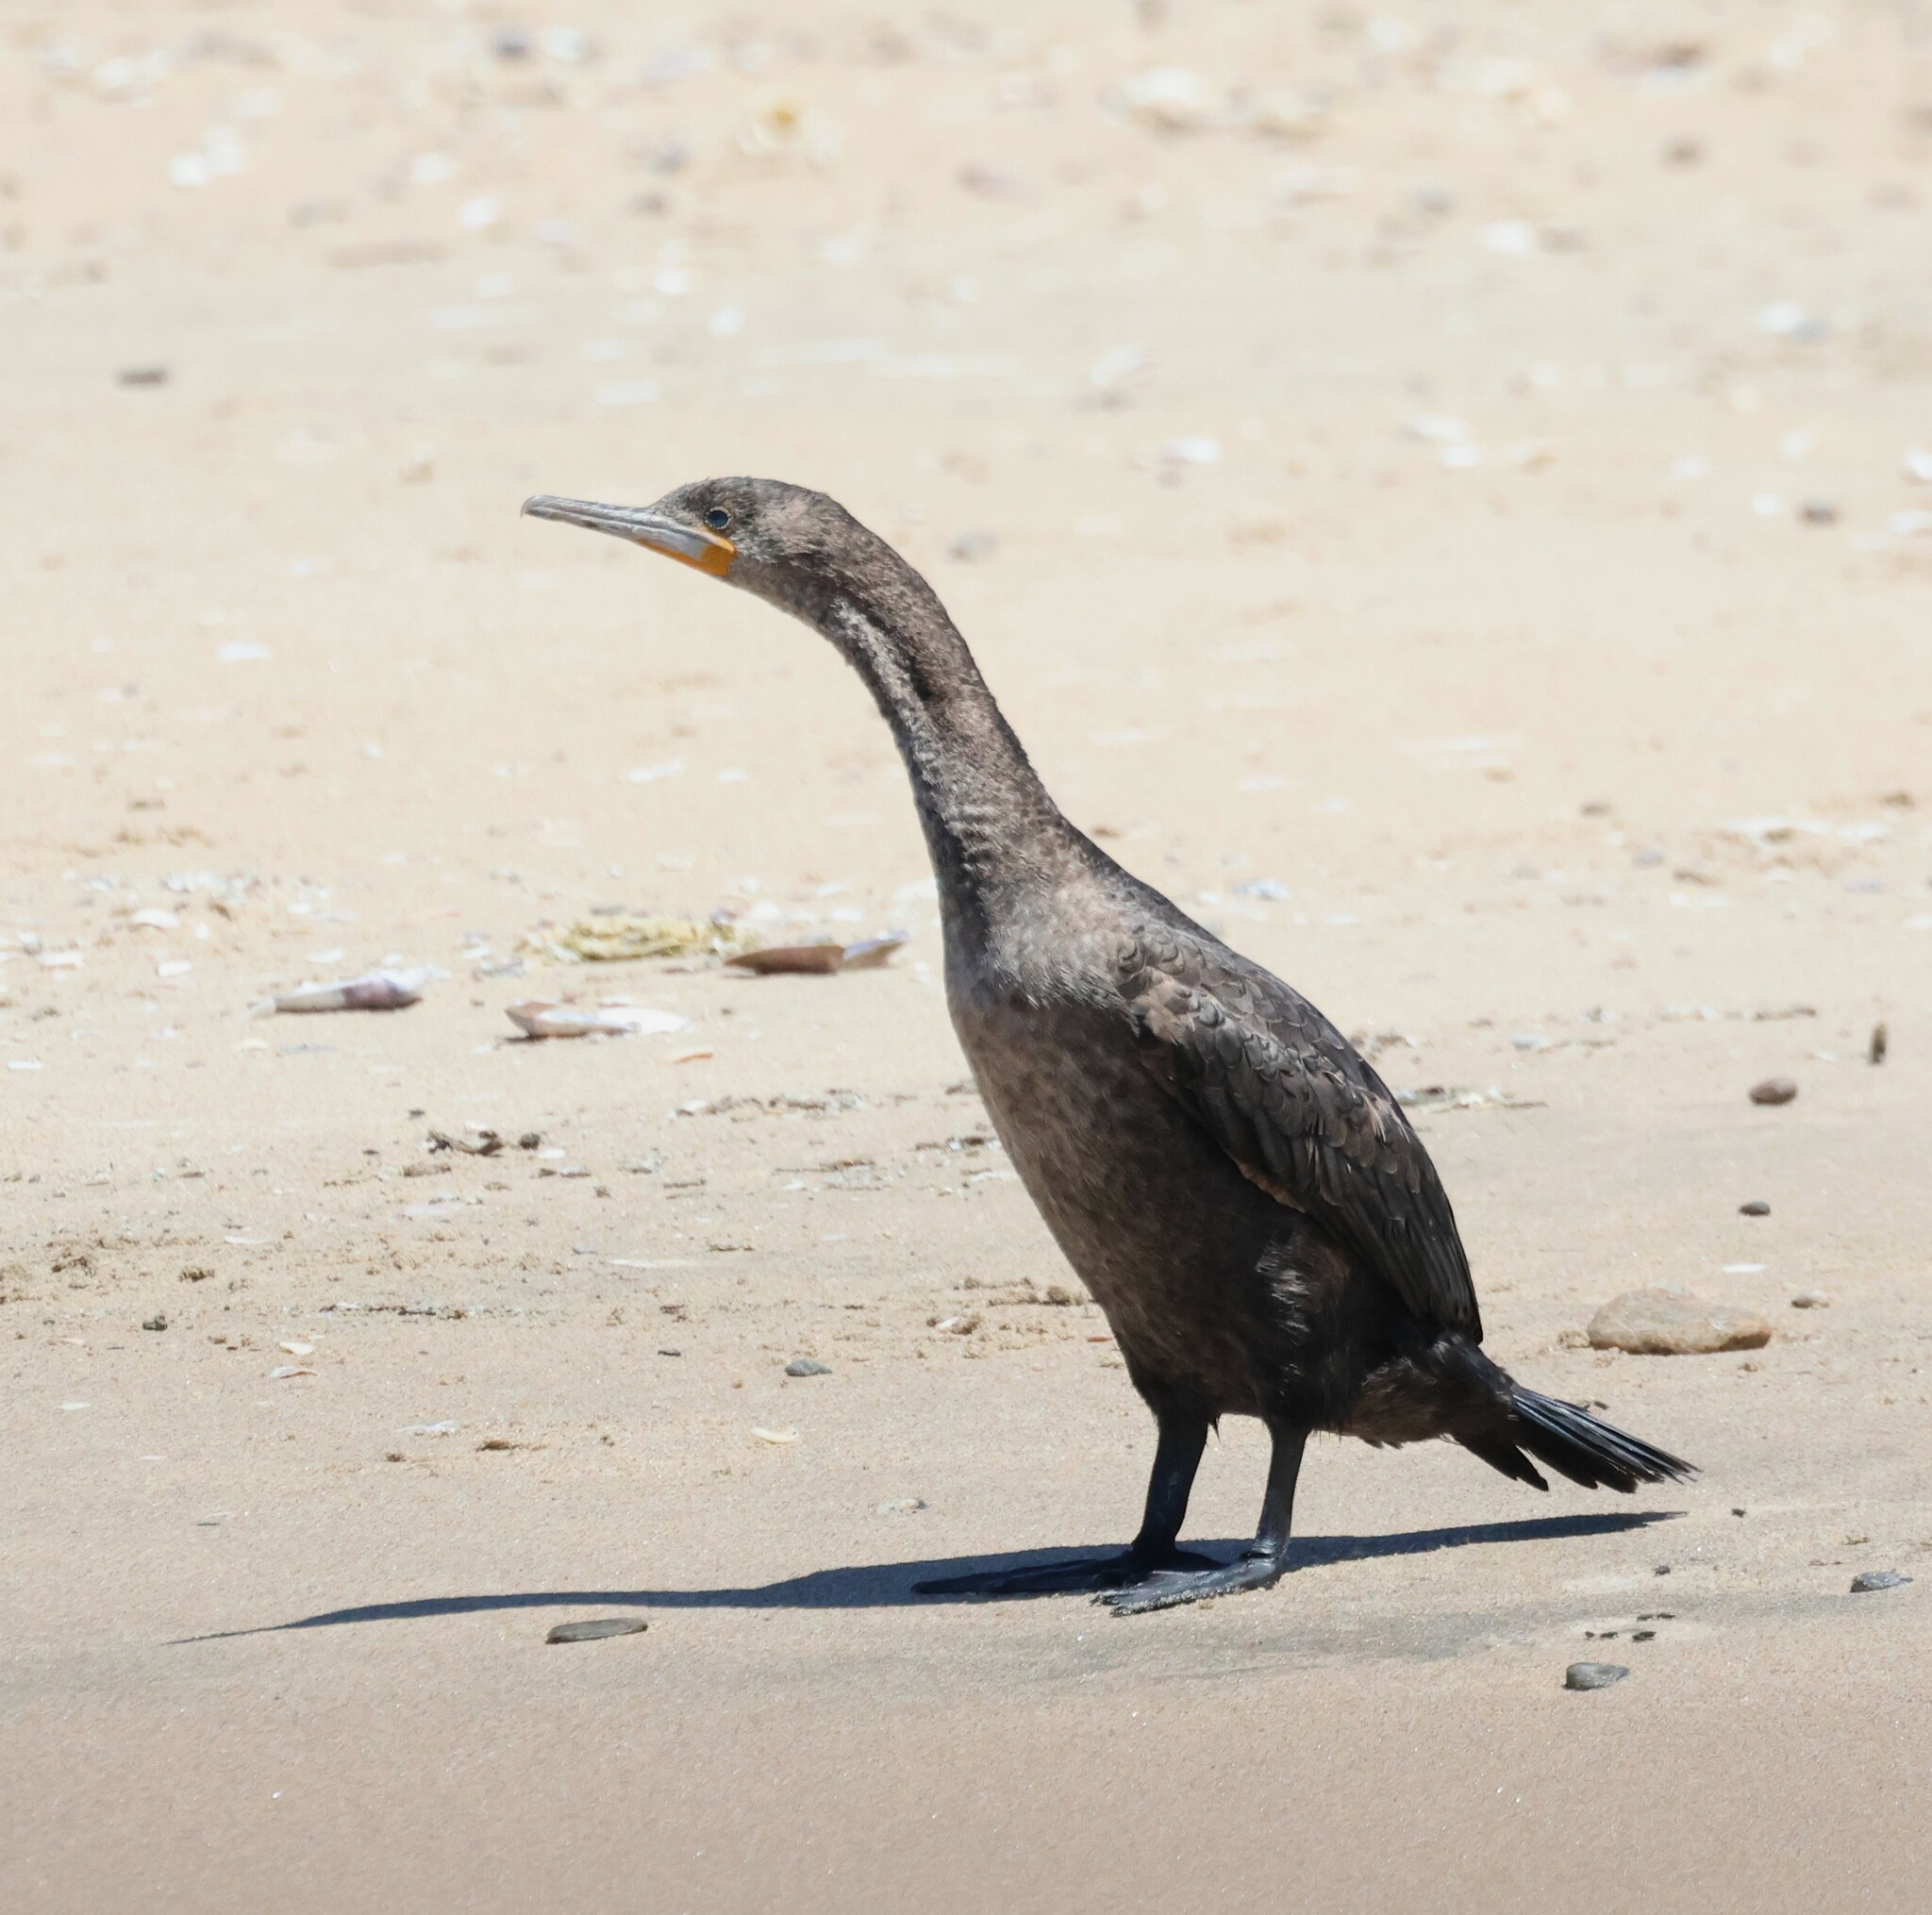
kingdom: Animalia
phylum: Chordata
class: Aves
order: Suliformes
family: Phalacrocoracidae
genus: Phalacrocorax
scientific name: Phalacrocorax capensis
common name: Cape cormorant
